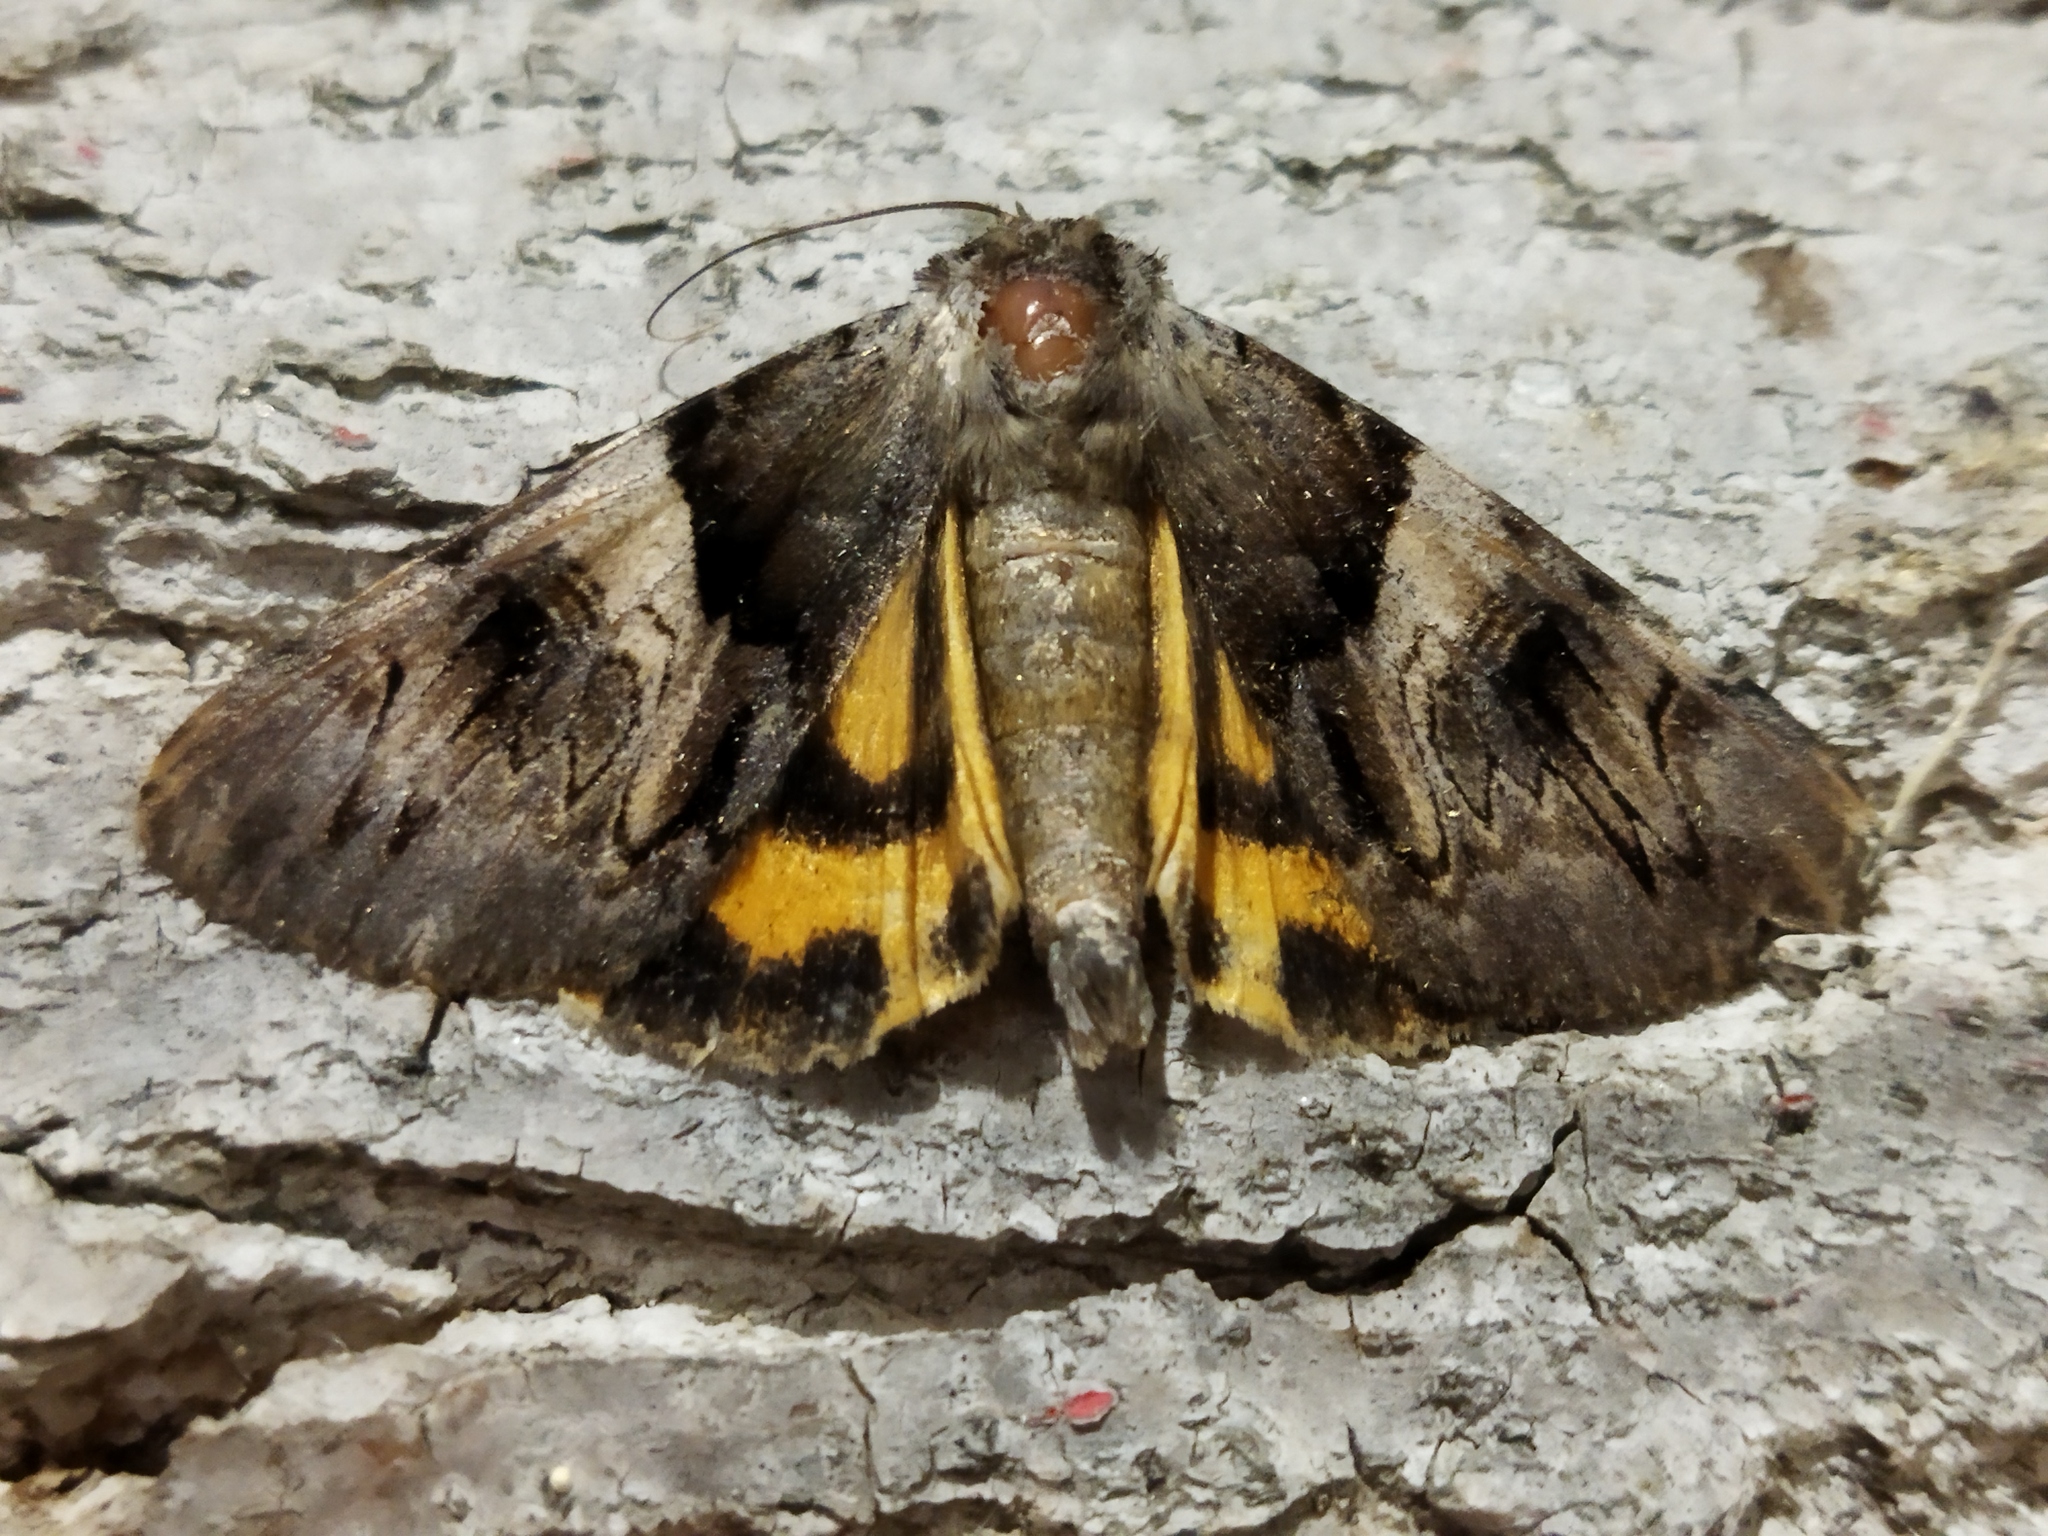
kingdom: Animalia
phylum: Arthropoda
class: Insecta
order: Lepidoptera
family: Erebidae
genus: Catocala
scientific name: Catocala fulminea
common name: Yellow bands underwing
